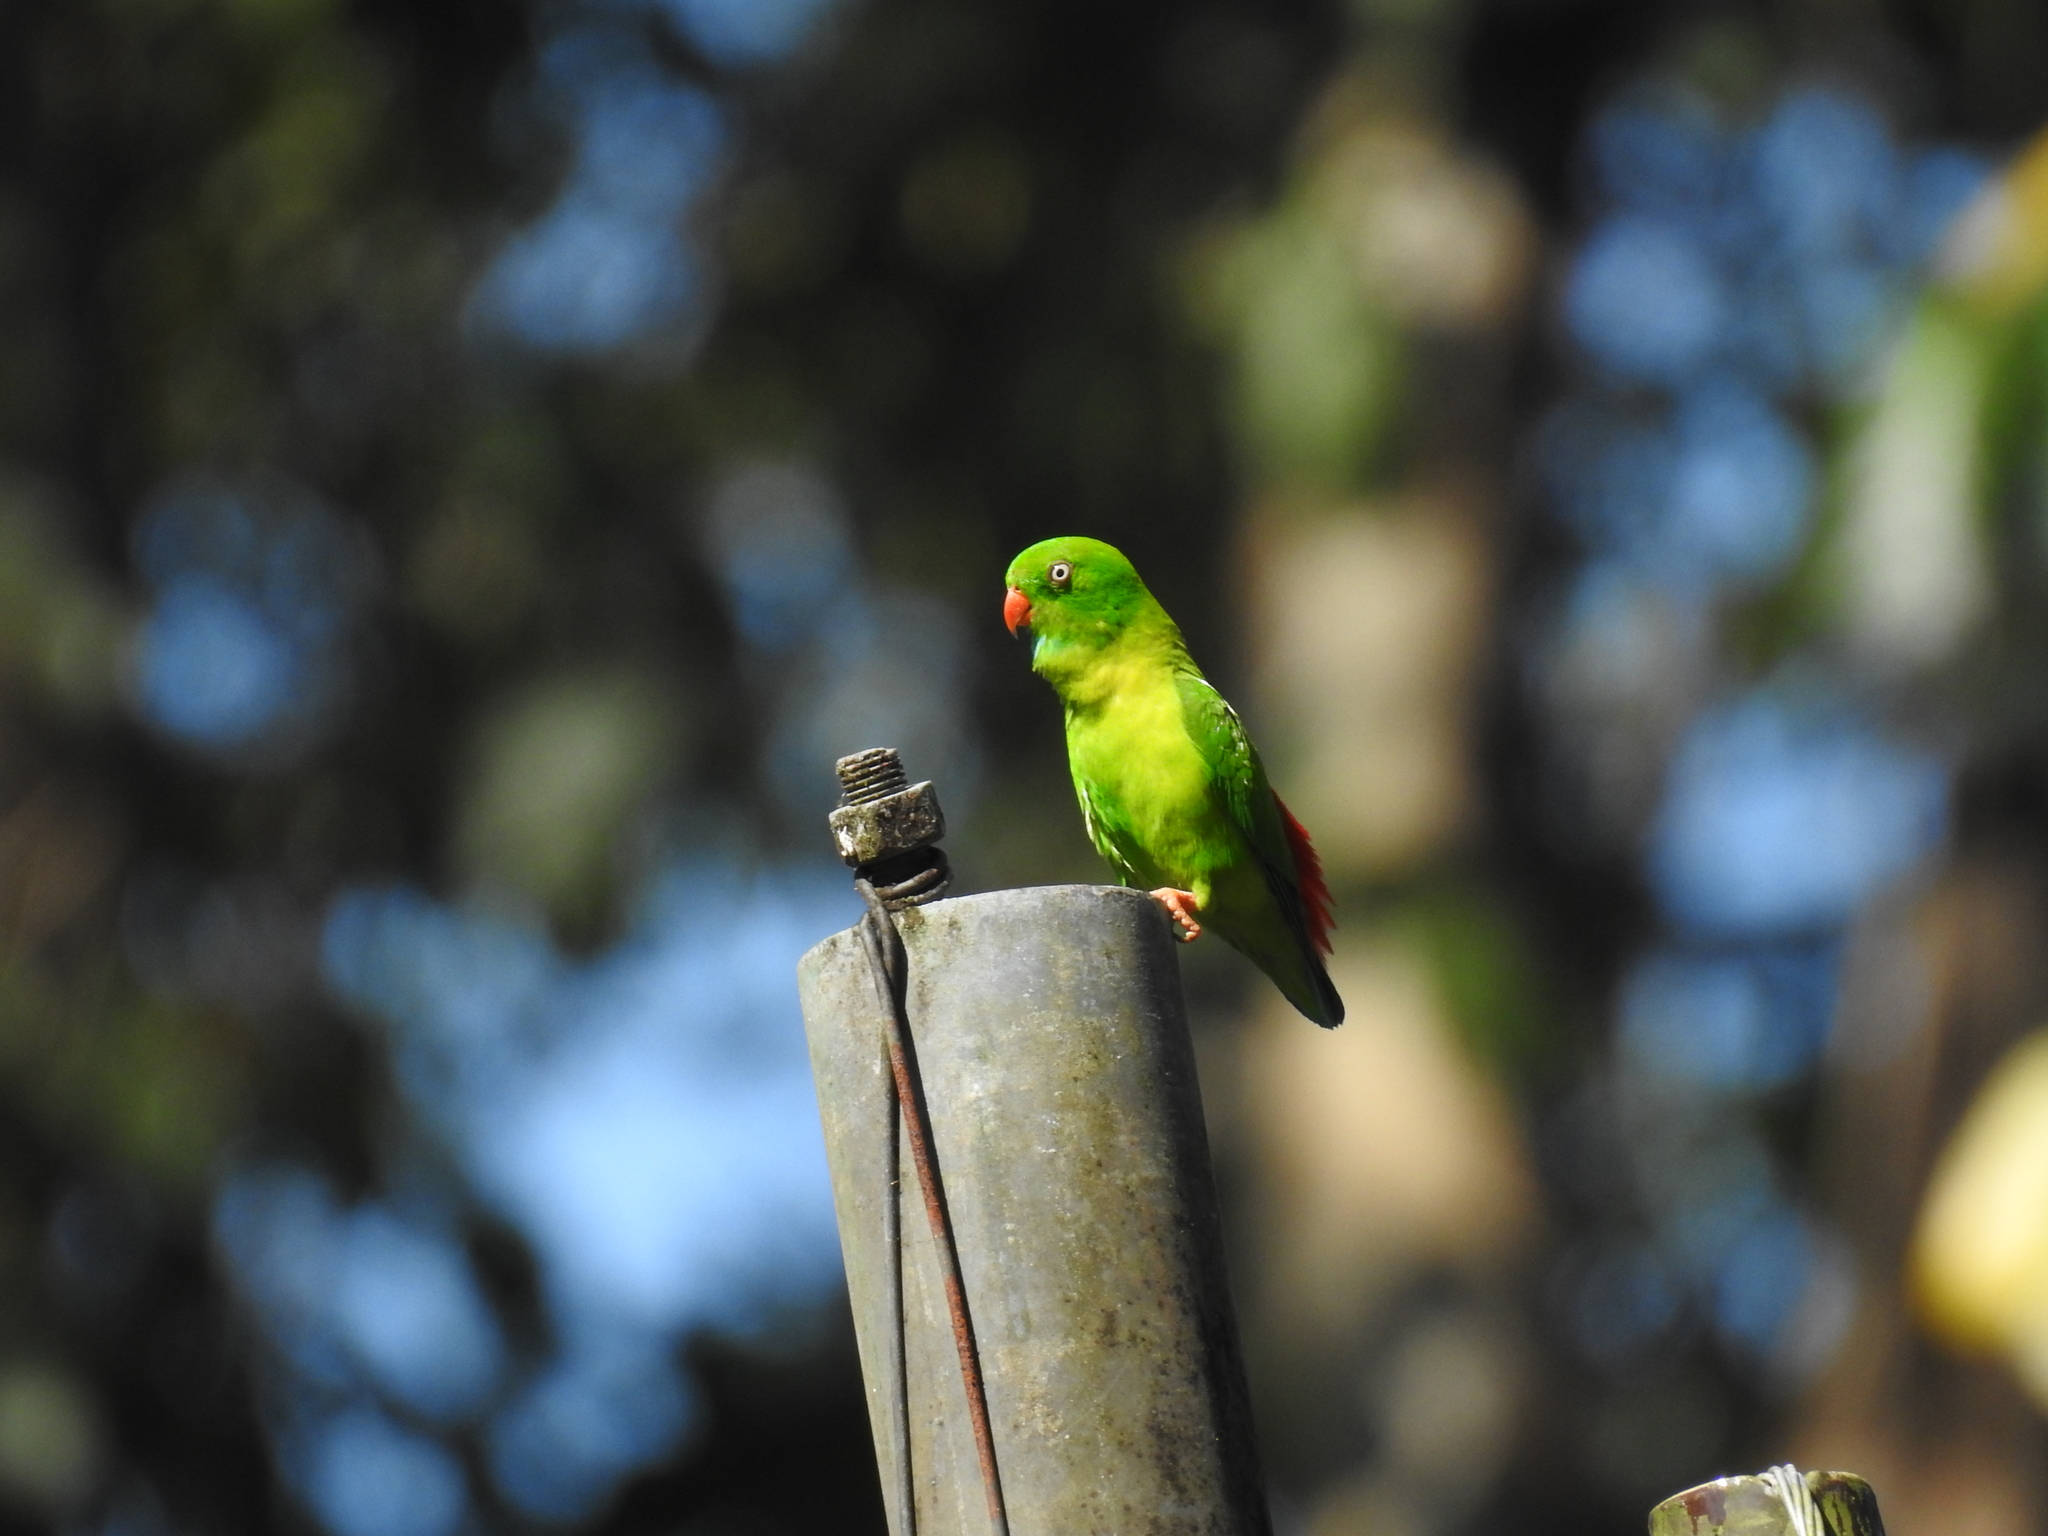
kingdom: Animalia
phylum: Chordata
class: Aves
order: Psittaciformes
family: Psittacidae
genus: Loriculus
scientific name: Loriculus vernalis
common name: Vernal hanging parrot
